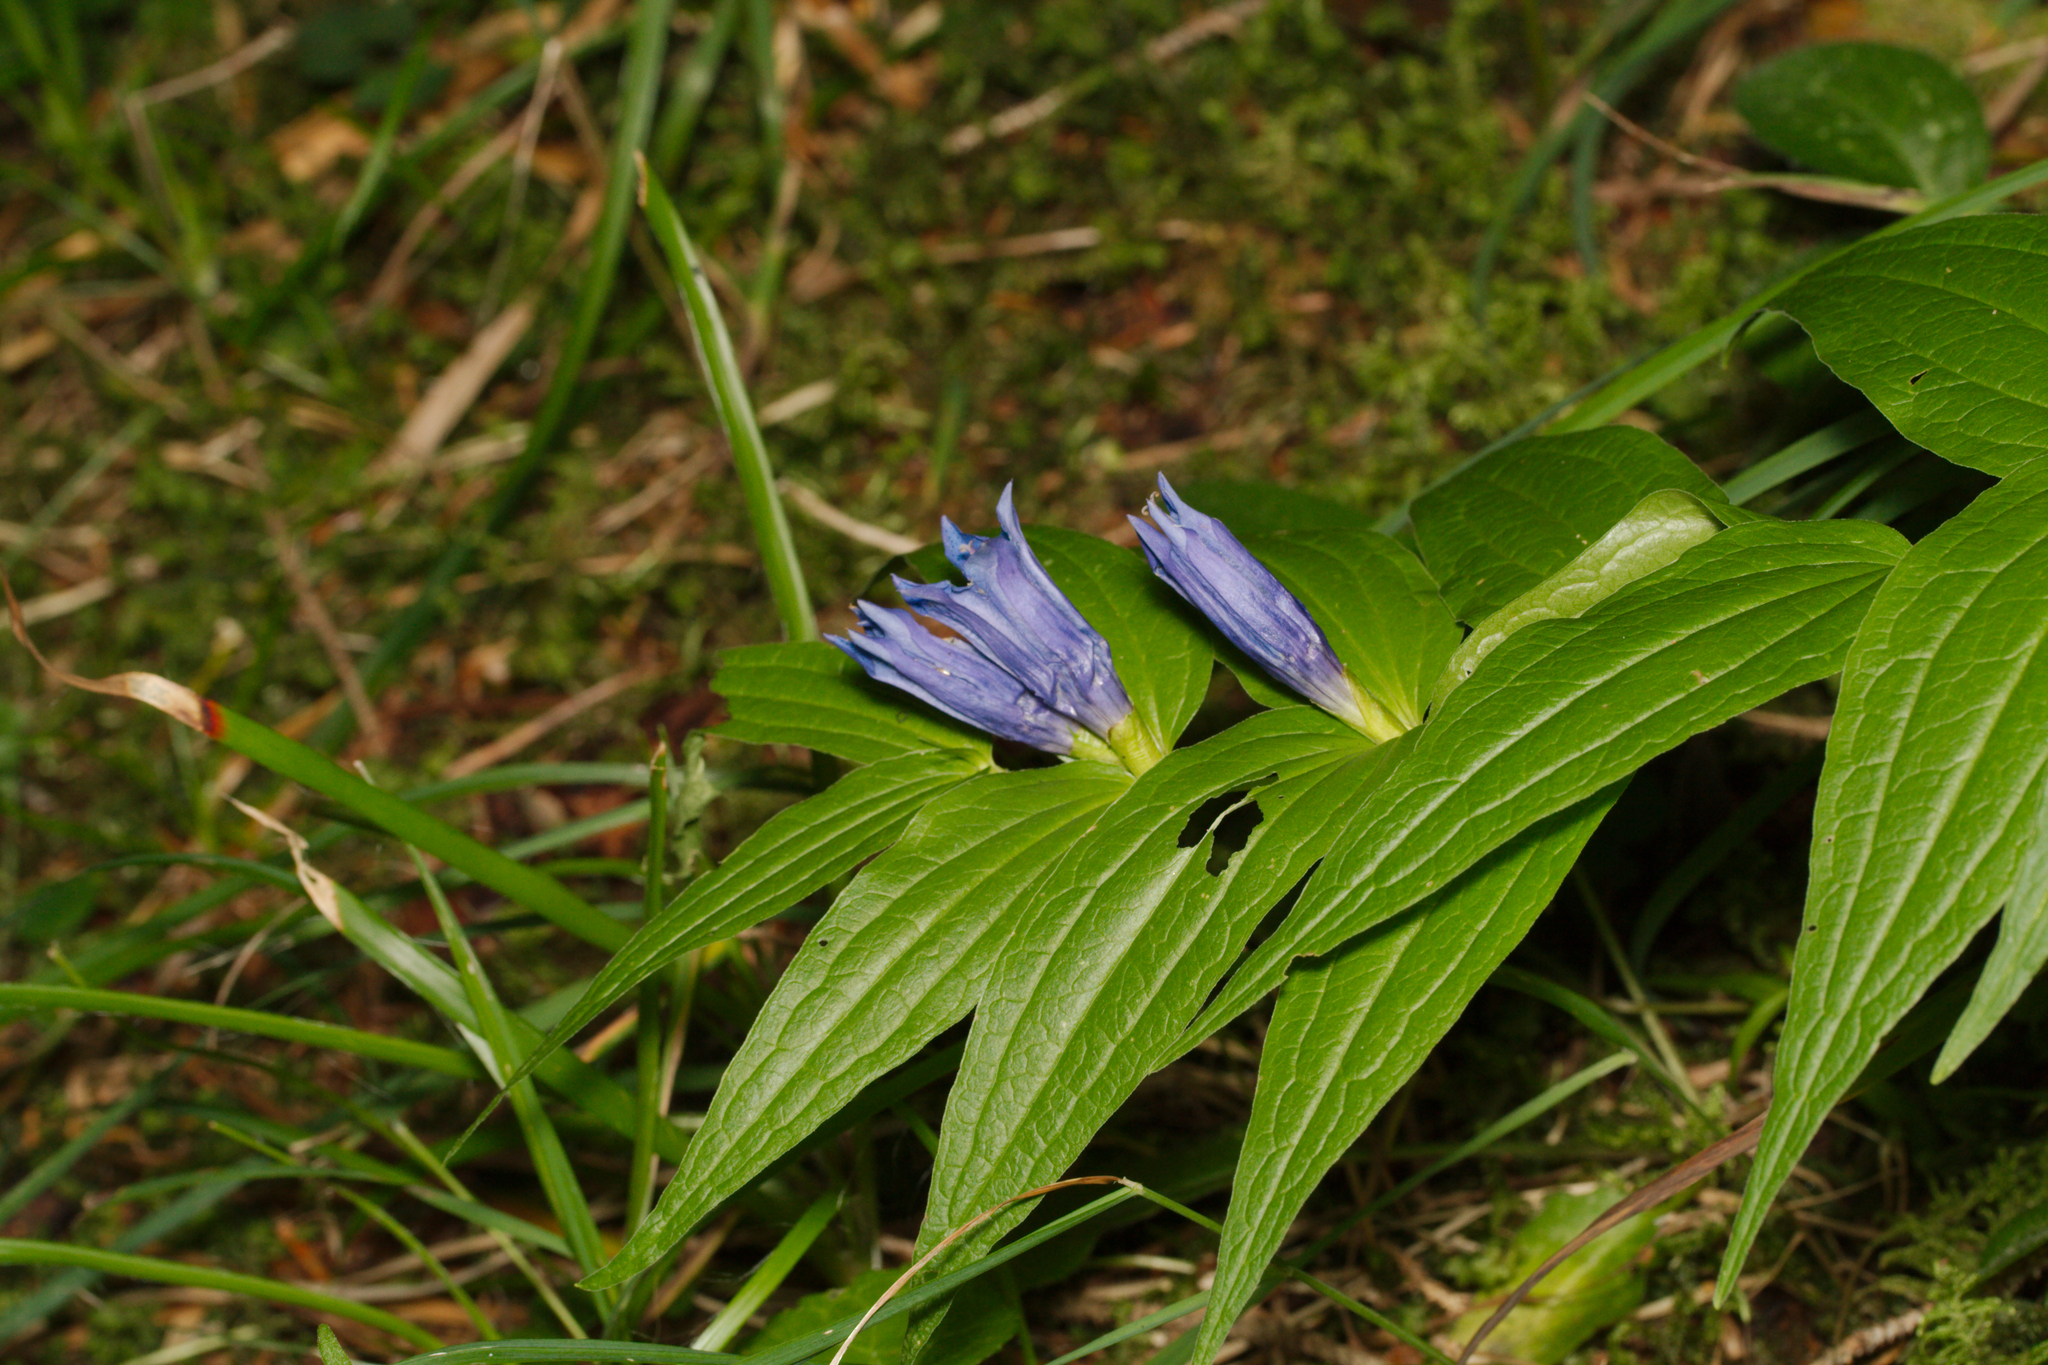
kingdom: Plantae
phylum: Tracheophyta
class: Magnoliopsida
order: Gentianales
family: Gentianaceae
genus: Gentiana
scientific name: Gentiana asclepiadea
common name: Willow gentian
